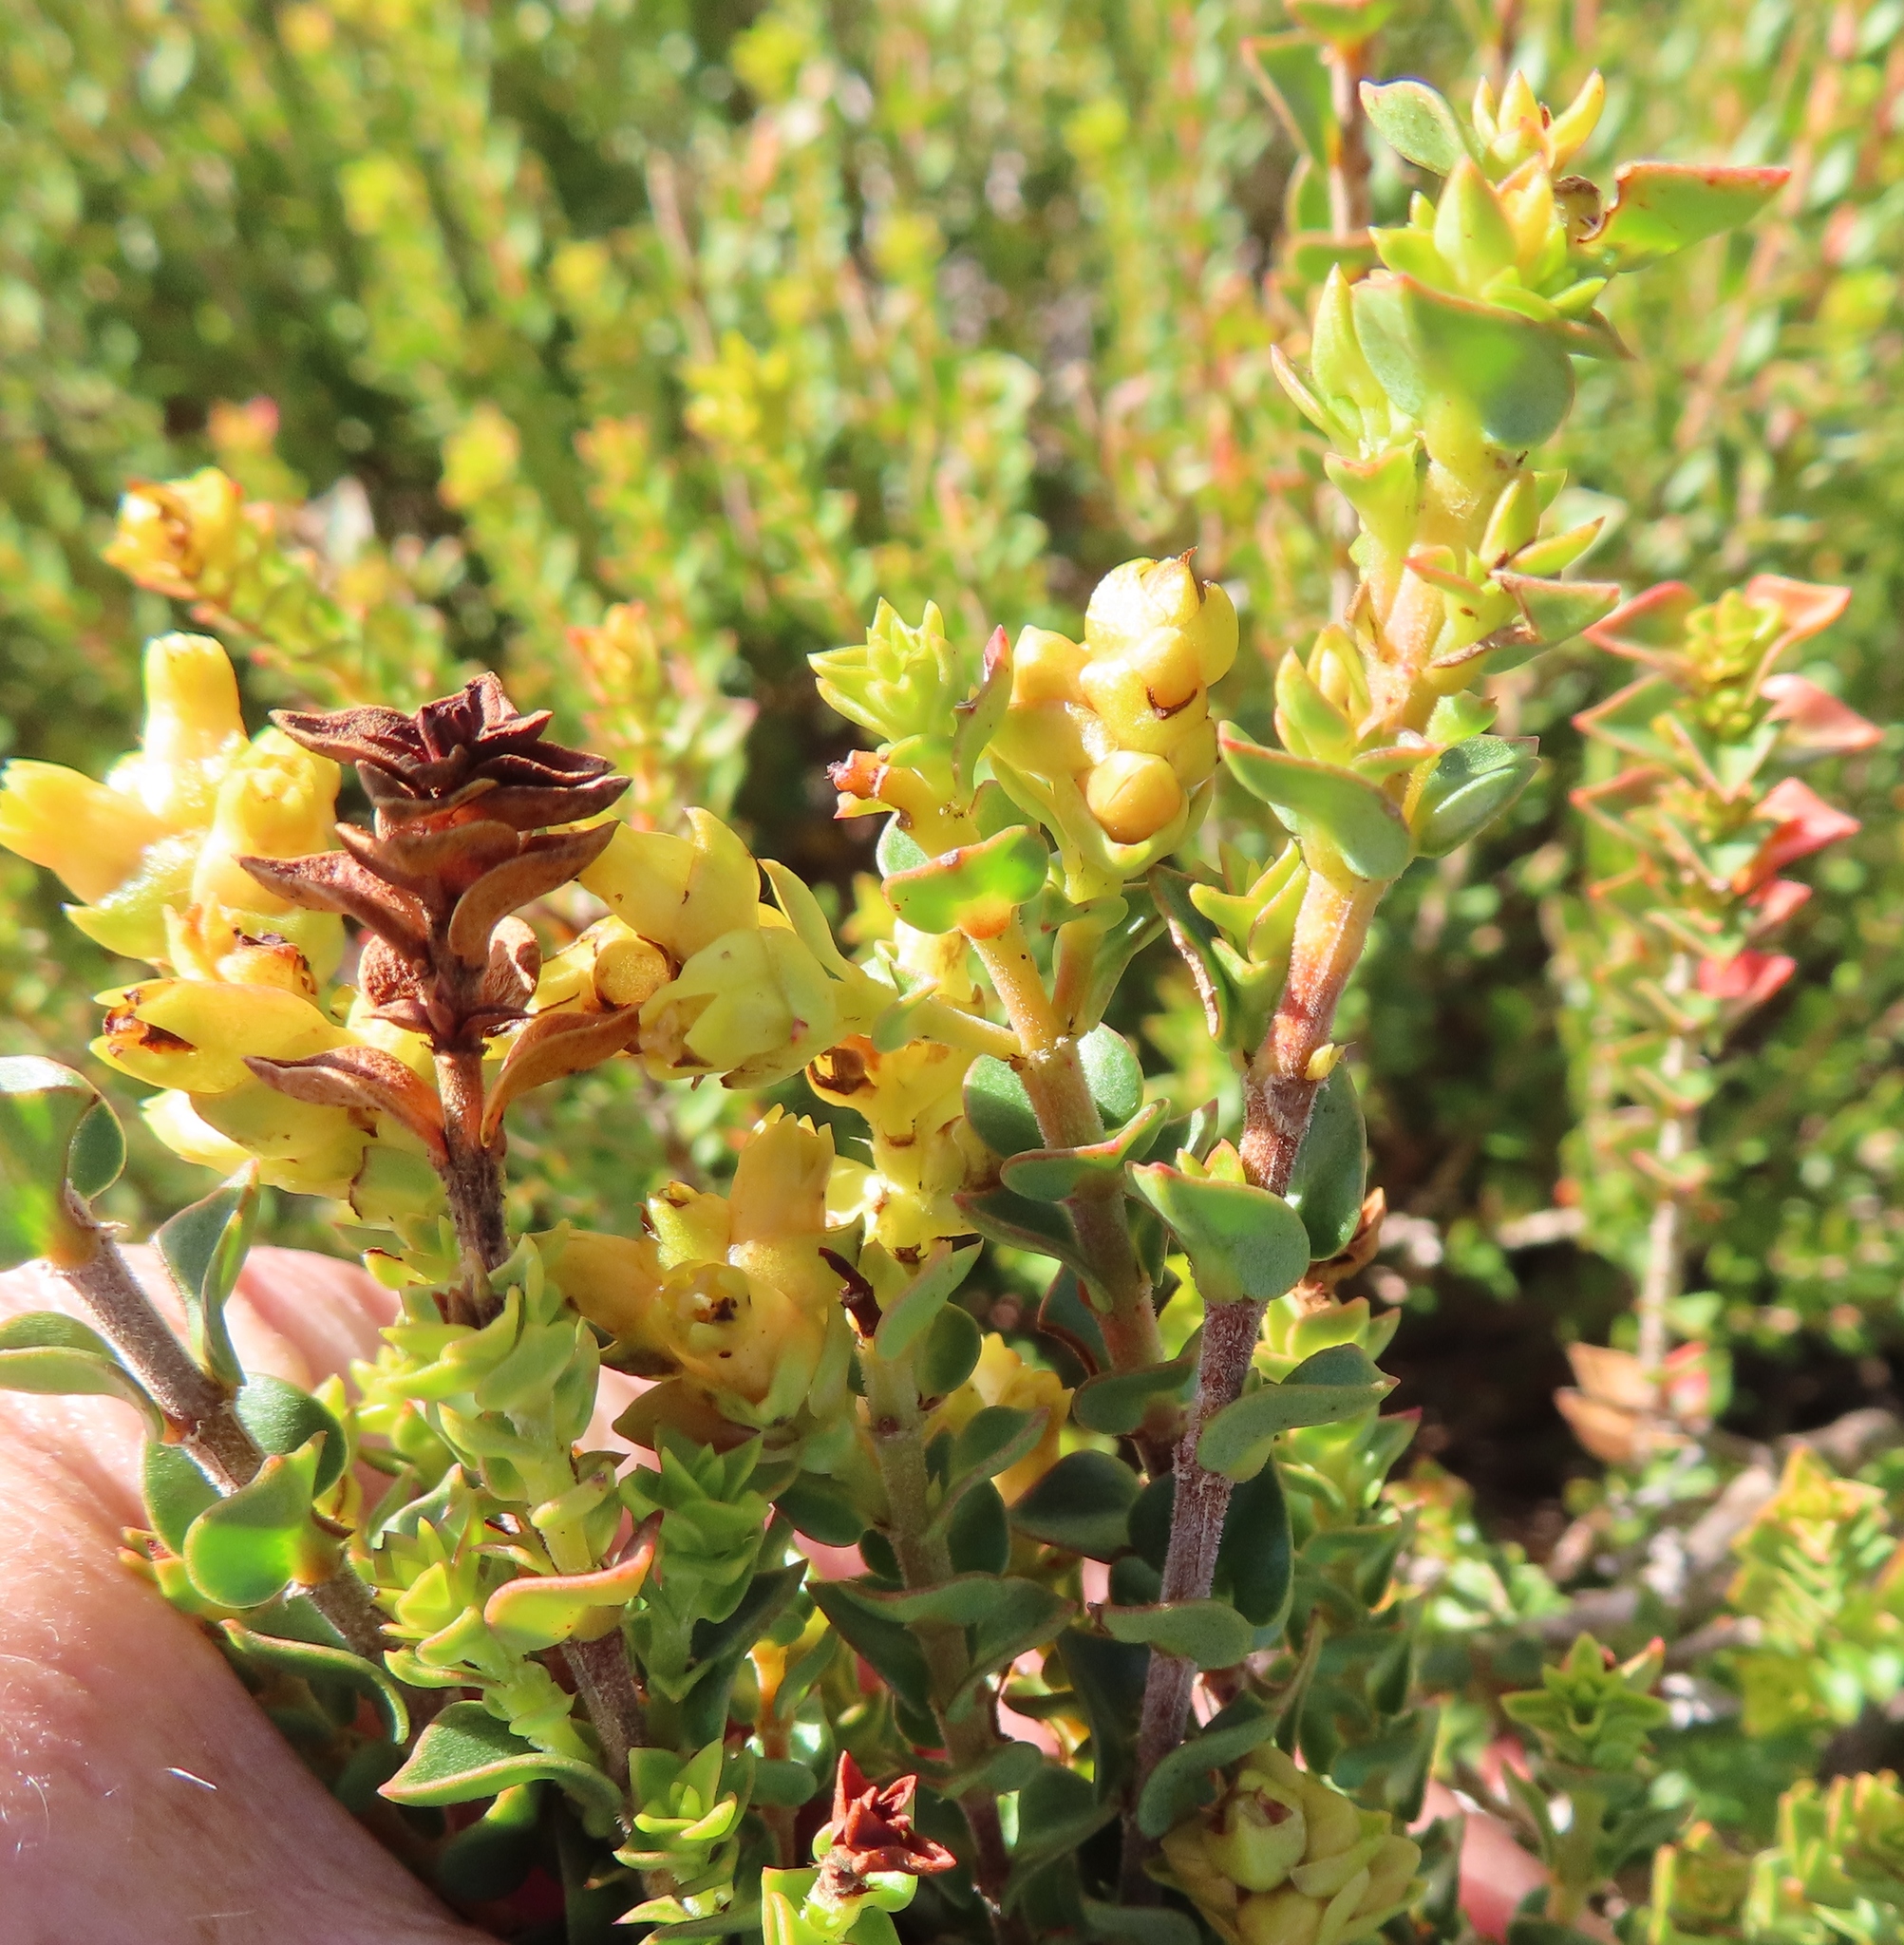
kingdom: Plantae
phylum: Tracheophyta
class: Magnoliopsida
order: Myrtales
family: Penaeaceae
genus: Penaea
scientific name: Penaea mucronata
